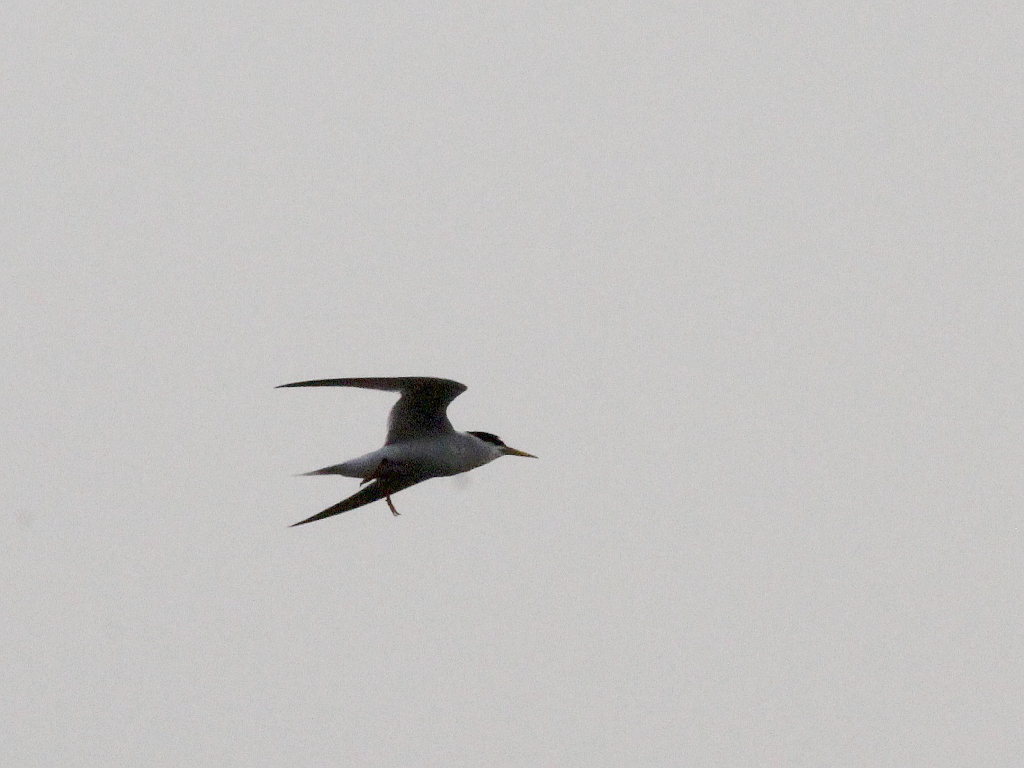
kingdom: Animalia
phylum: Chordata
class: Aves
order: Charadriiformes
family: Laridae
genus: Sternula
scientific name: Sternula albifrons
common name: Little tern
